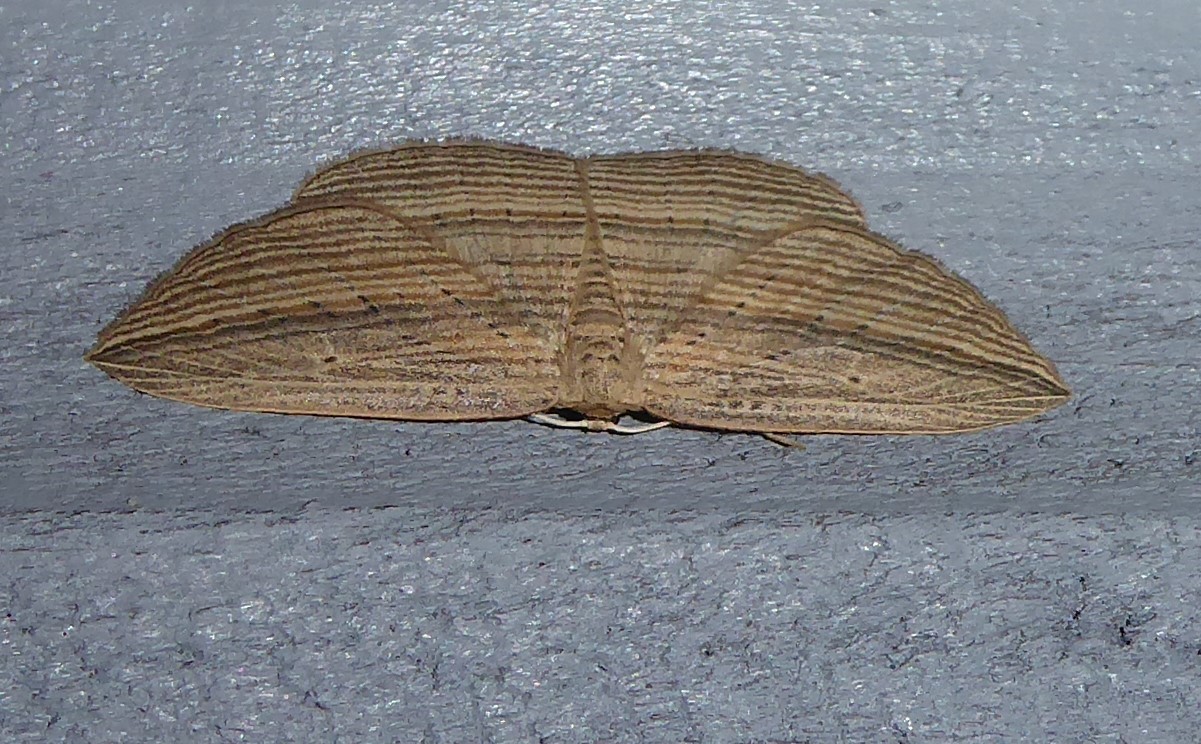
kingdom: Animalia
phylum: Arthropoda
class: Insecta
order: Lepidoptera
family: Geometridae
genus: Epiphryne
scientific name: Epiphryne verriculata
